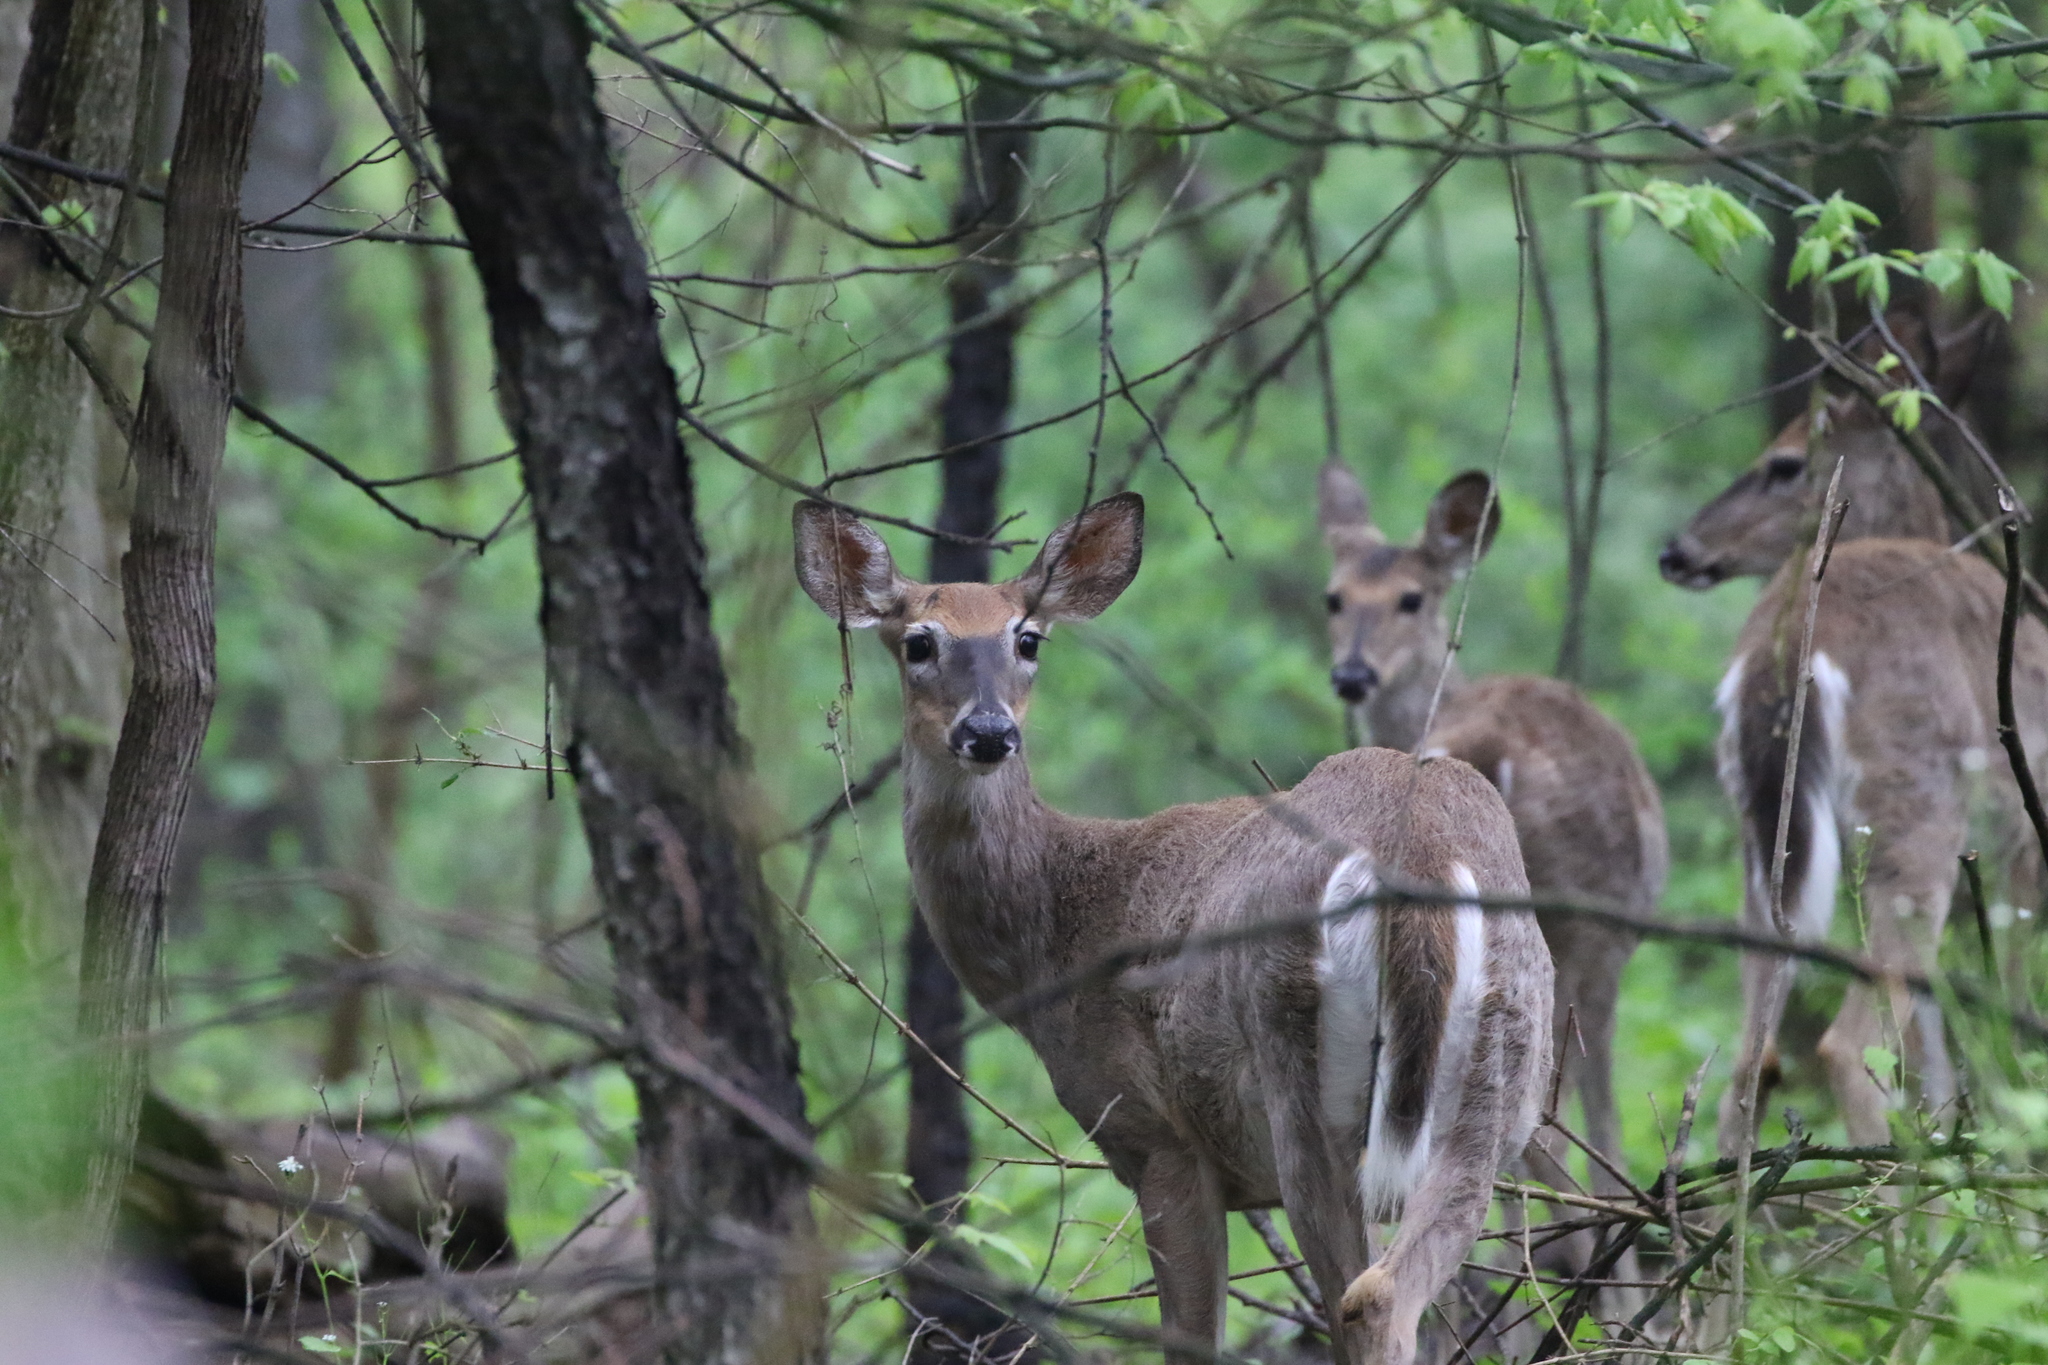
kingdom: Animalia
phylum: Chordata
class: Mammalia
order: Artiodactyla
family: Cervidae
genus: Odocoileus
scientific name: Odocoileus virginianus
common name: White-tailed deer
